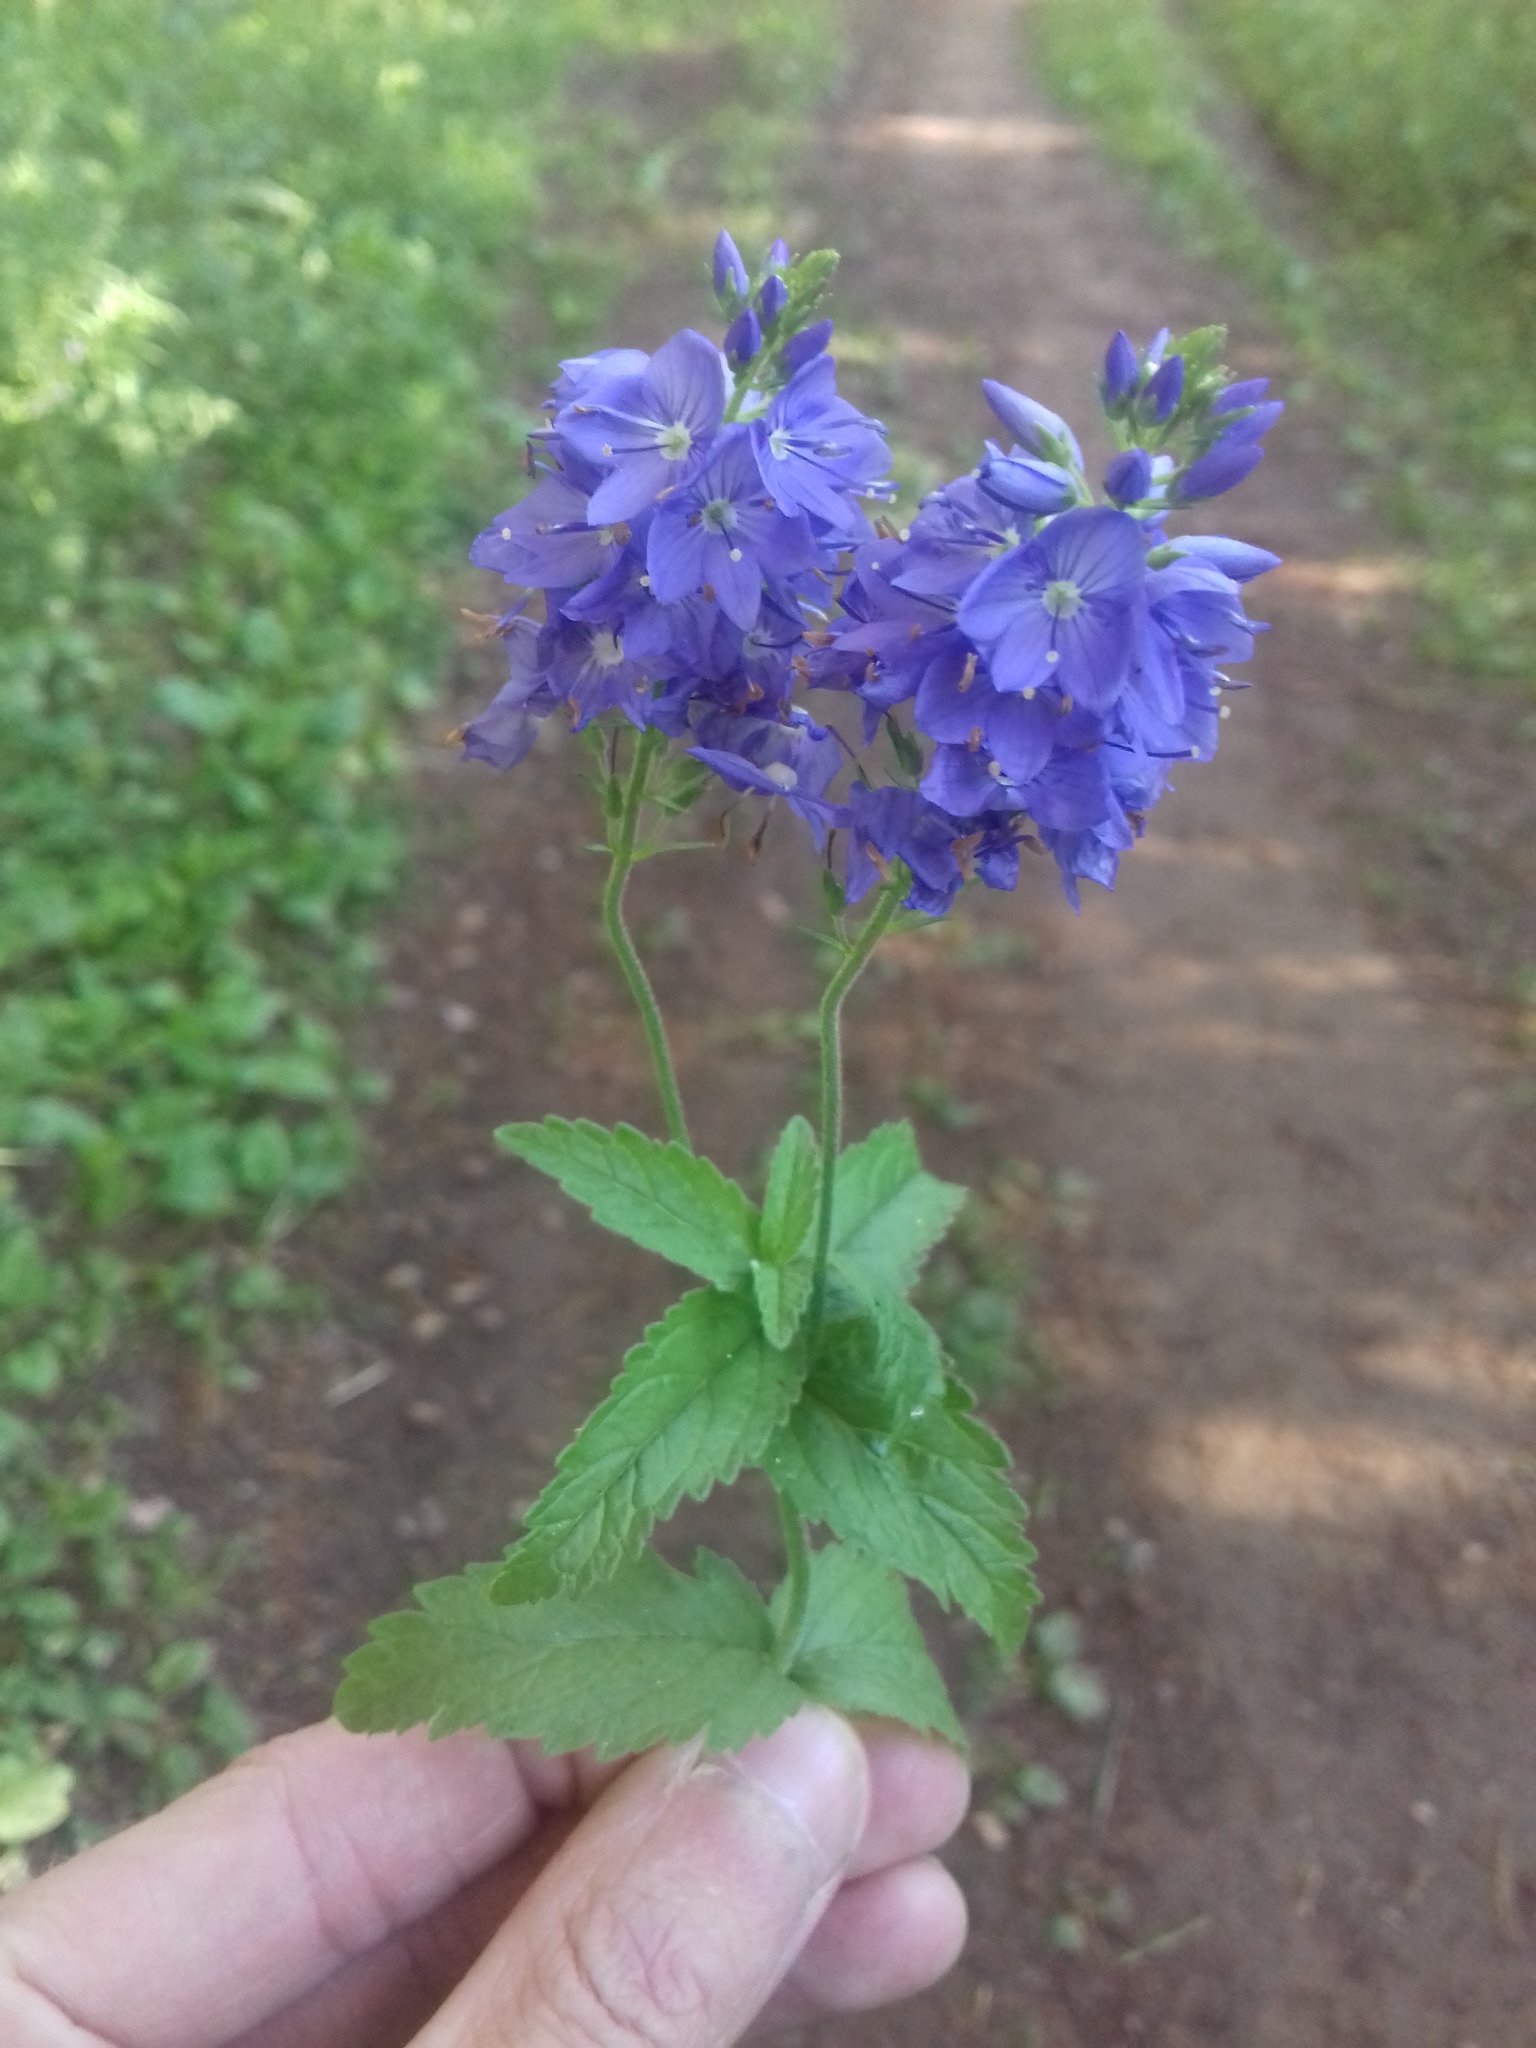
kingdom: Plantae
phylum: Tracheophyta
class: Magnoliopsida
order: Lamiales
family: Plantaginaceae
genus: Veronica
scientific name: Veronica teucrium
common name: Large speedwell
